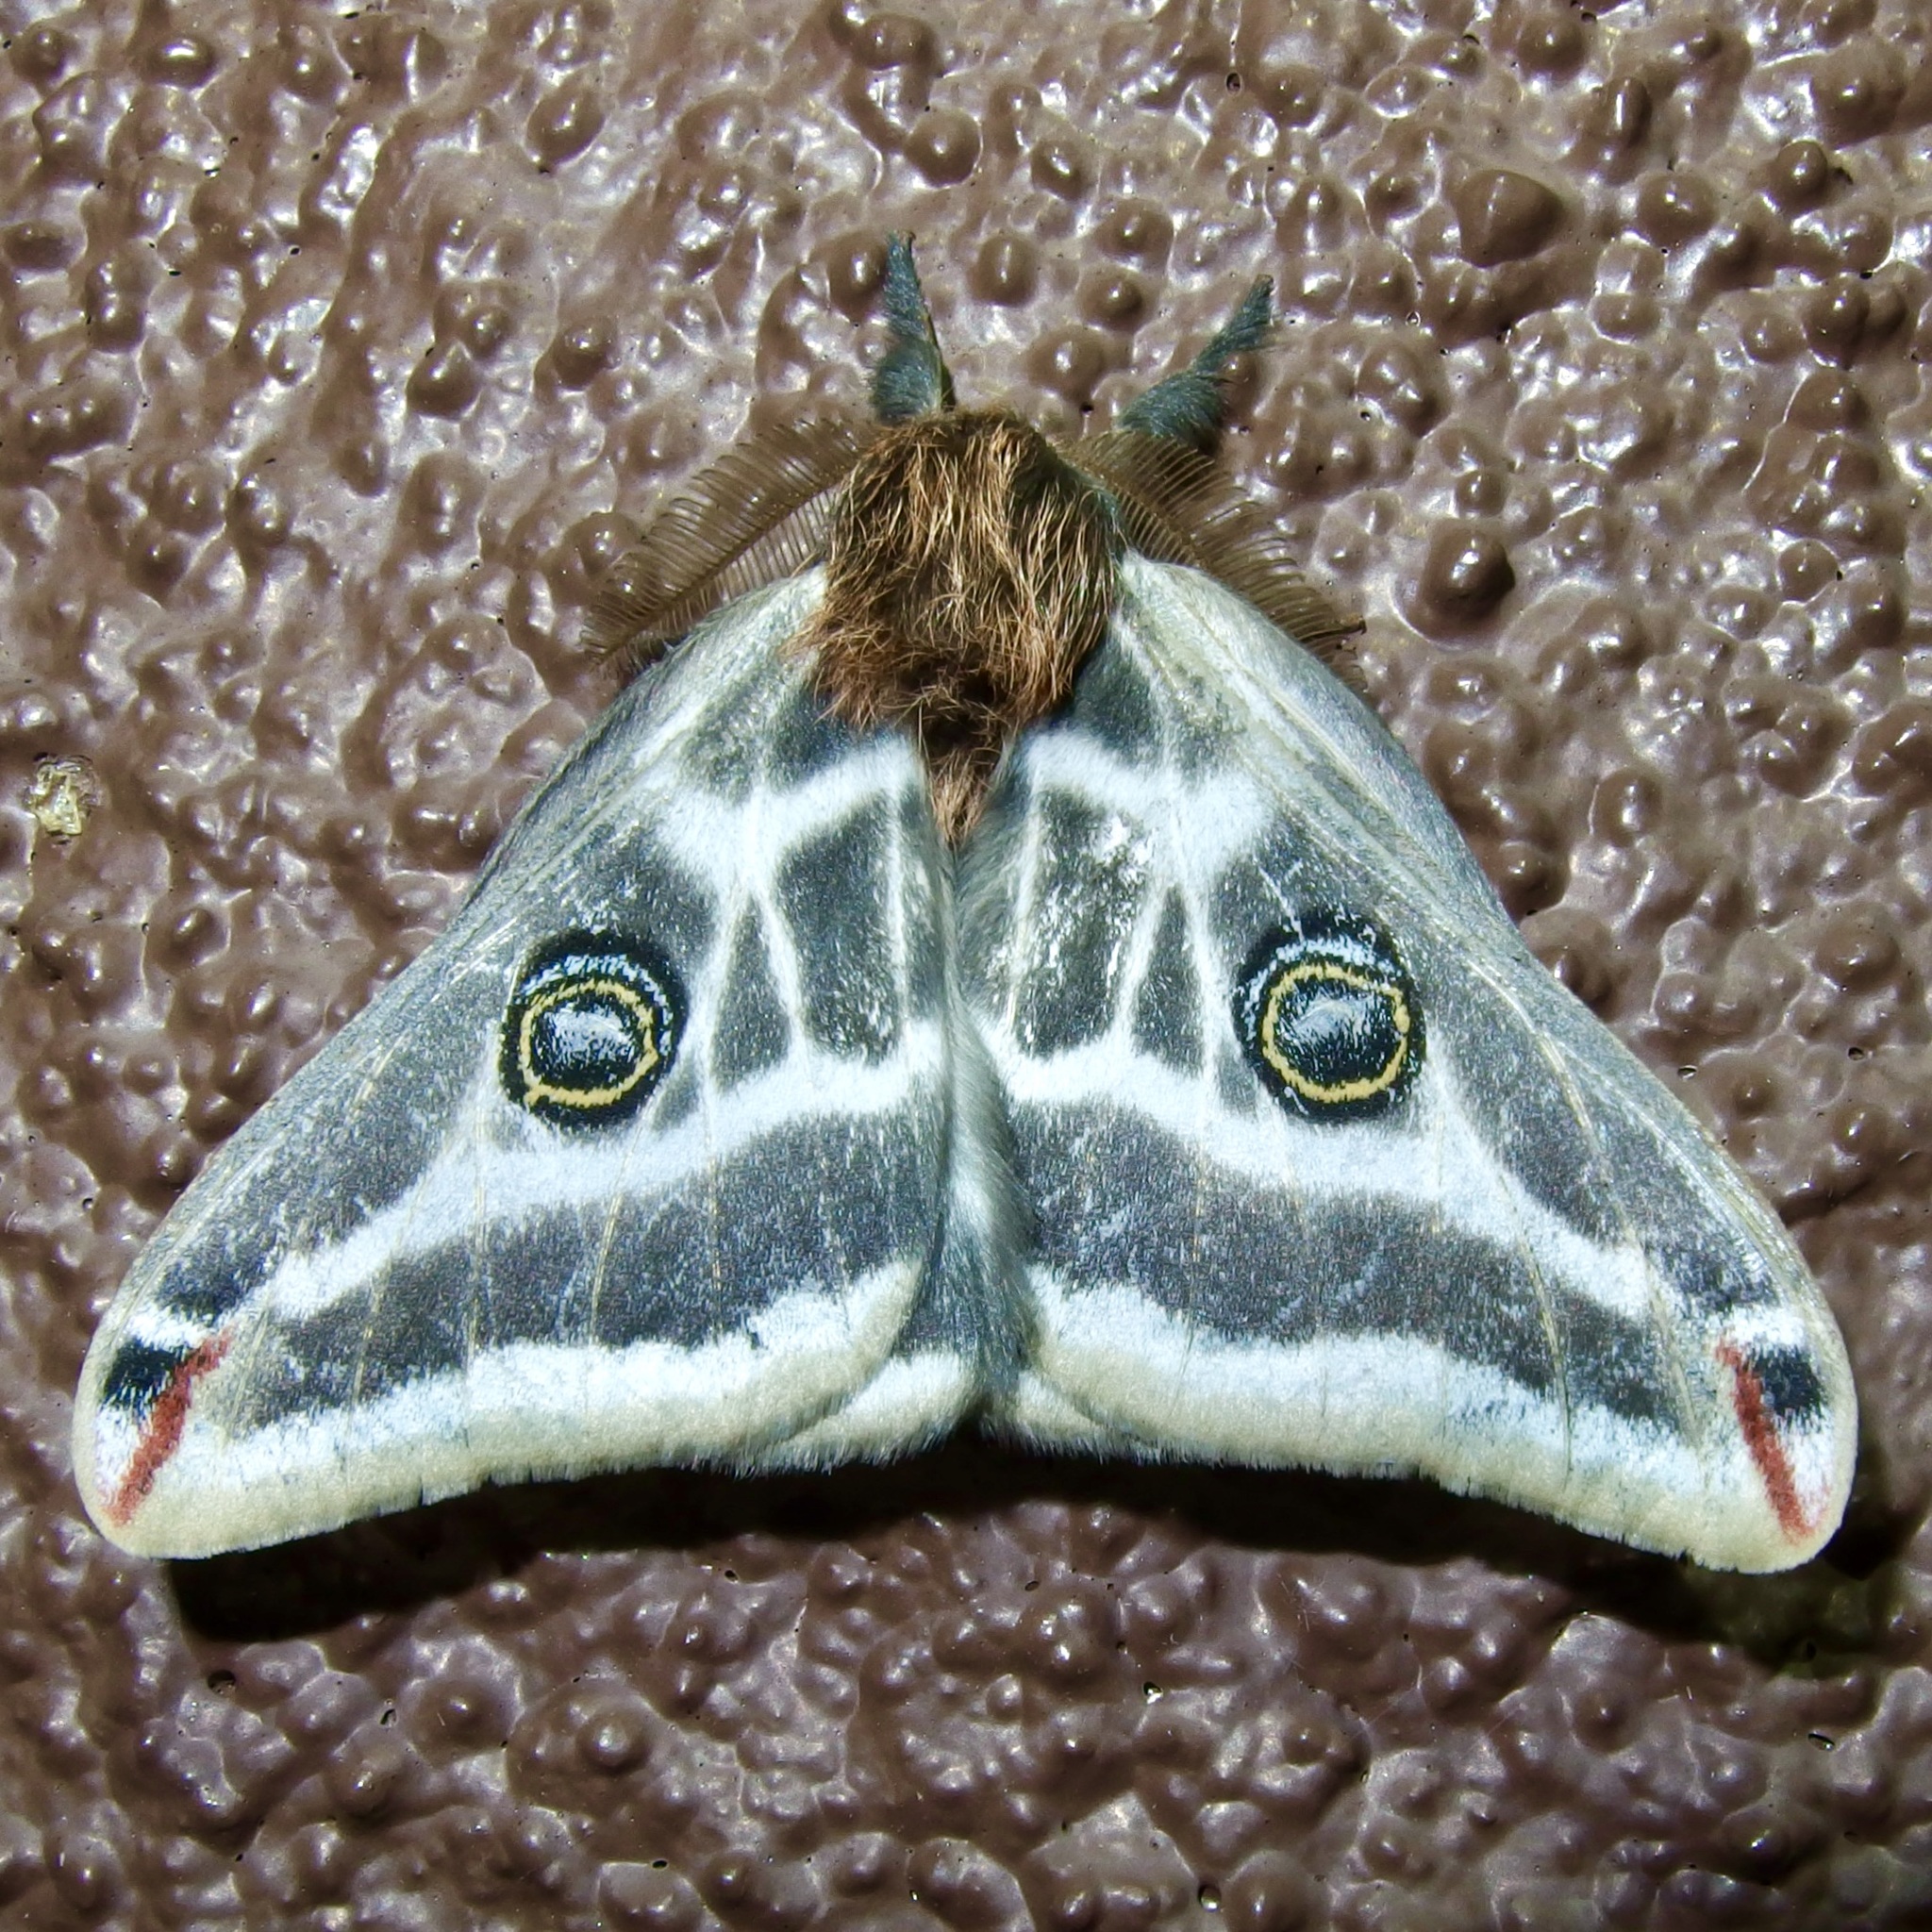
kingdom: Animalia
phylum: Arthropoda
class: Insecta
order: Lepidoptera
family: Saturniidae
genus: Saturnia
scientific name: Saturnia anona
